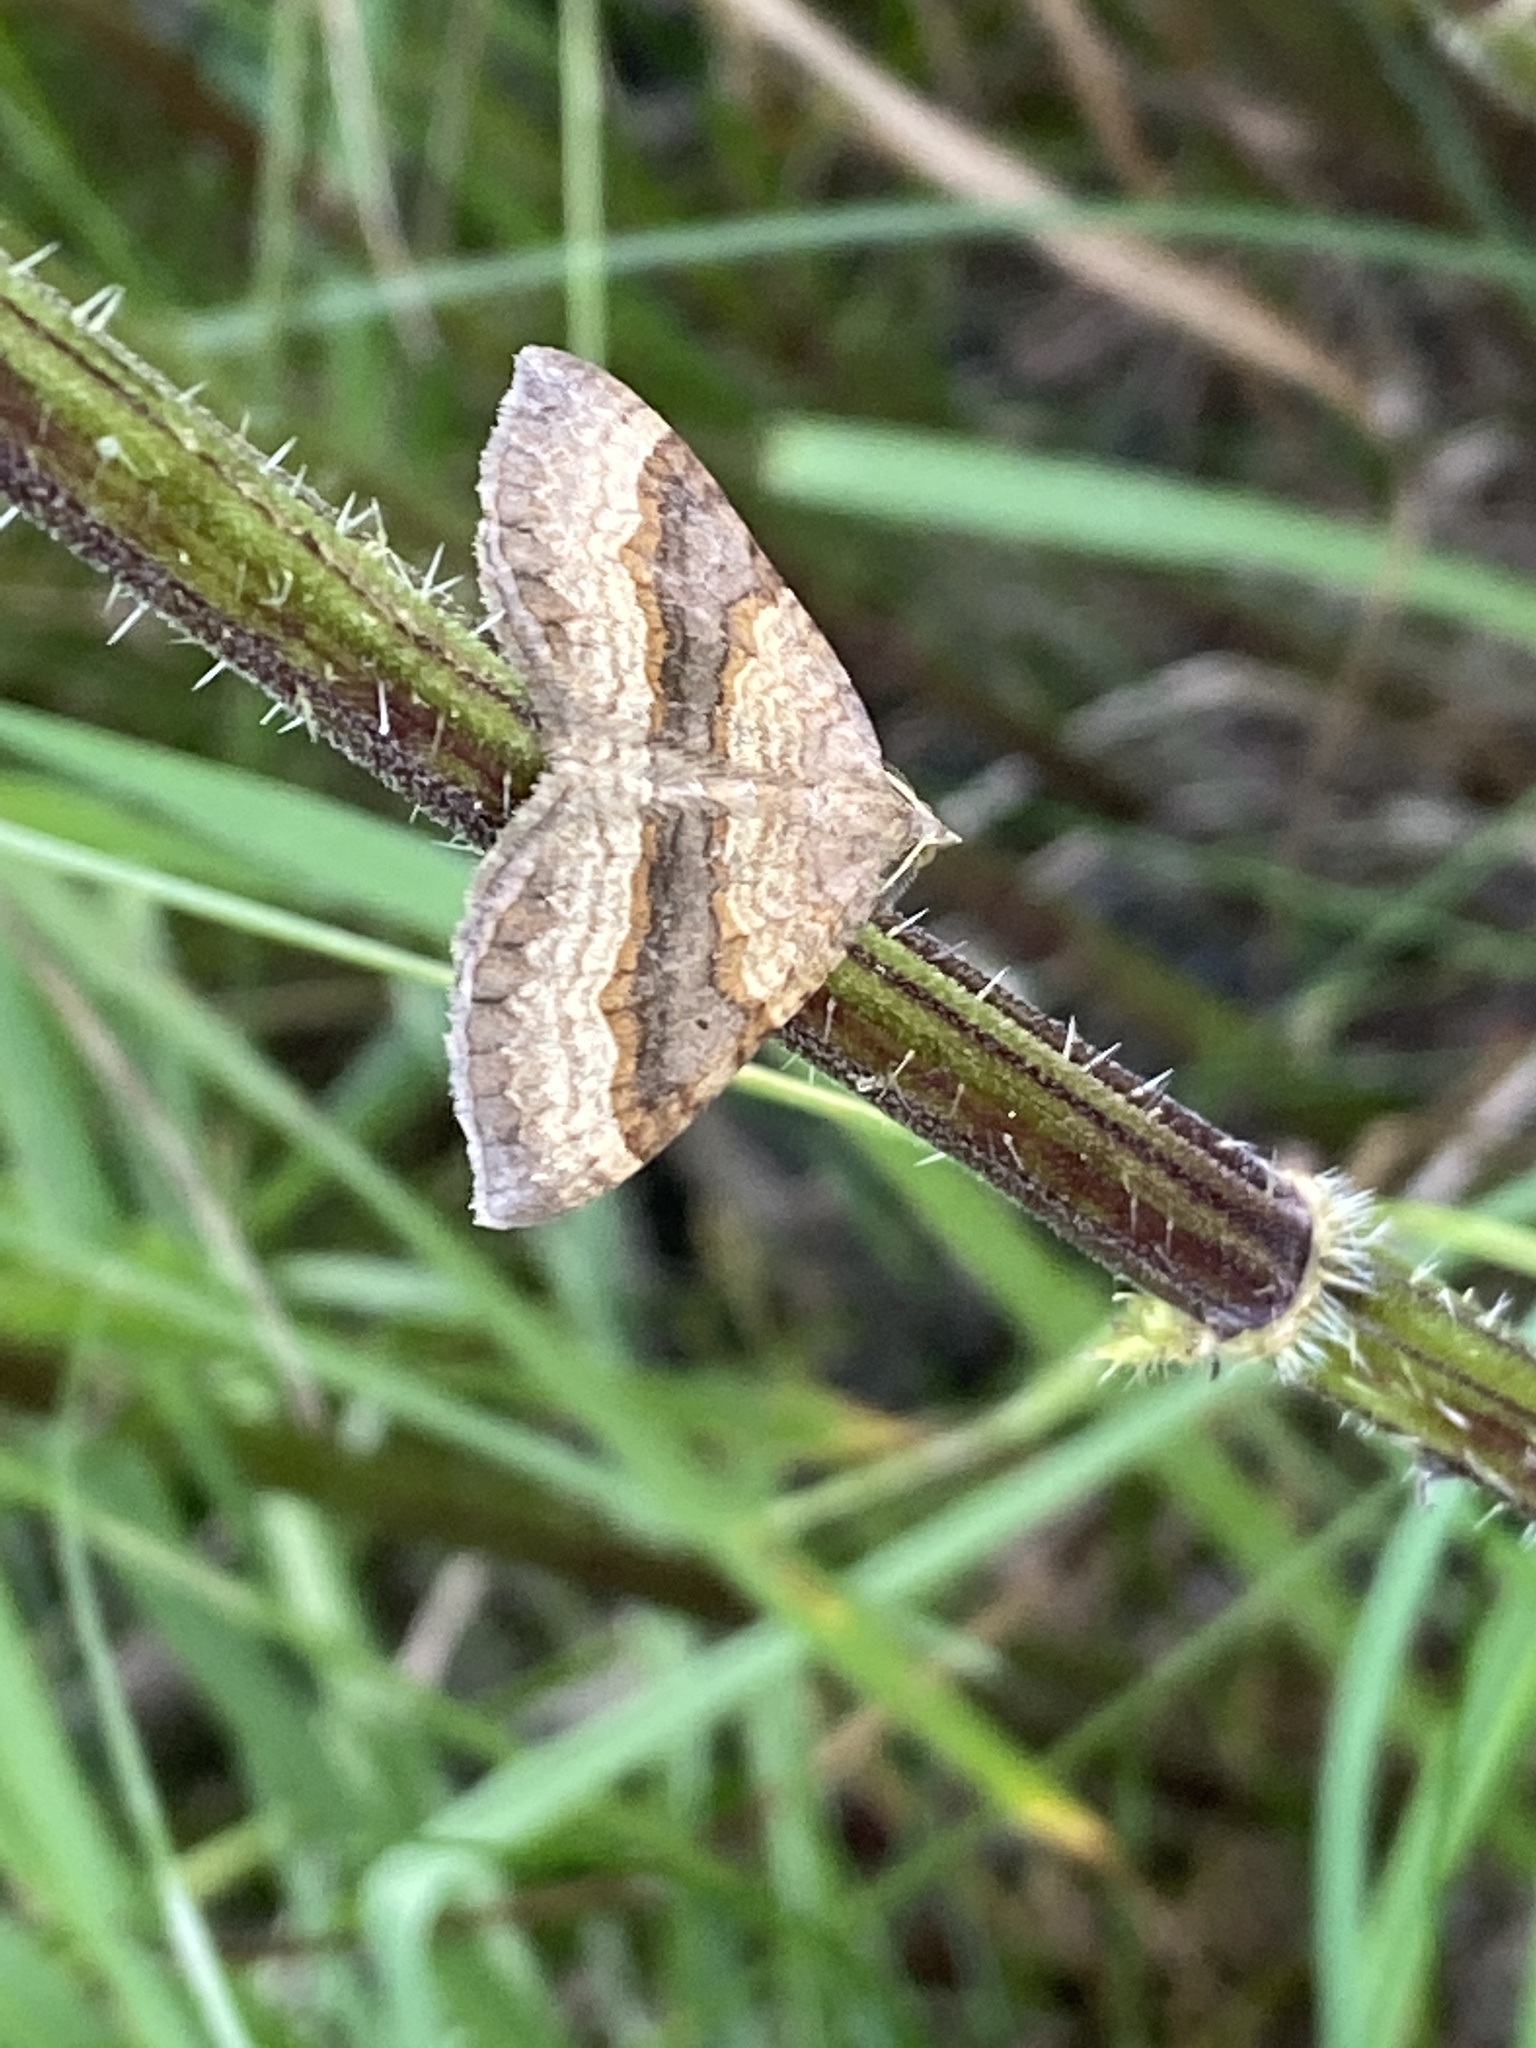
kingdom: Animalia
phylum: Arthropoda
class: Insecta
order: Lepidoptera
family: Geometridae
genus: Scotopteryx
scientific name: Scotopteryx chenopodiata
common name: Shaded broad-bar
